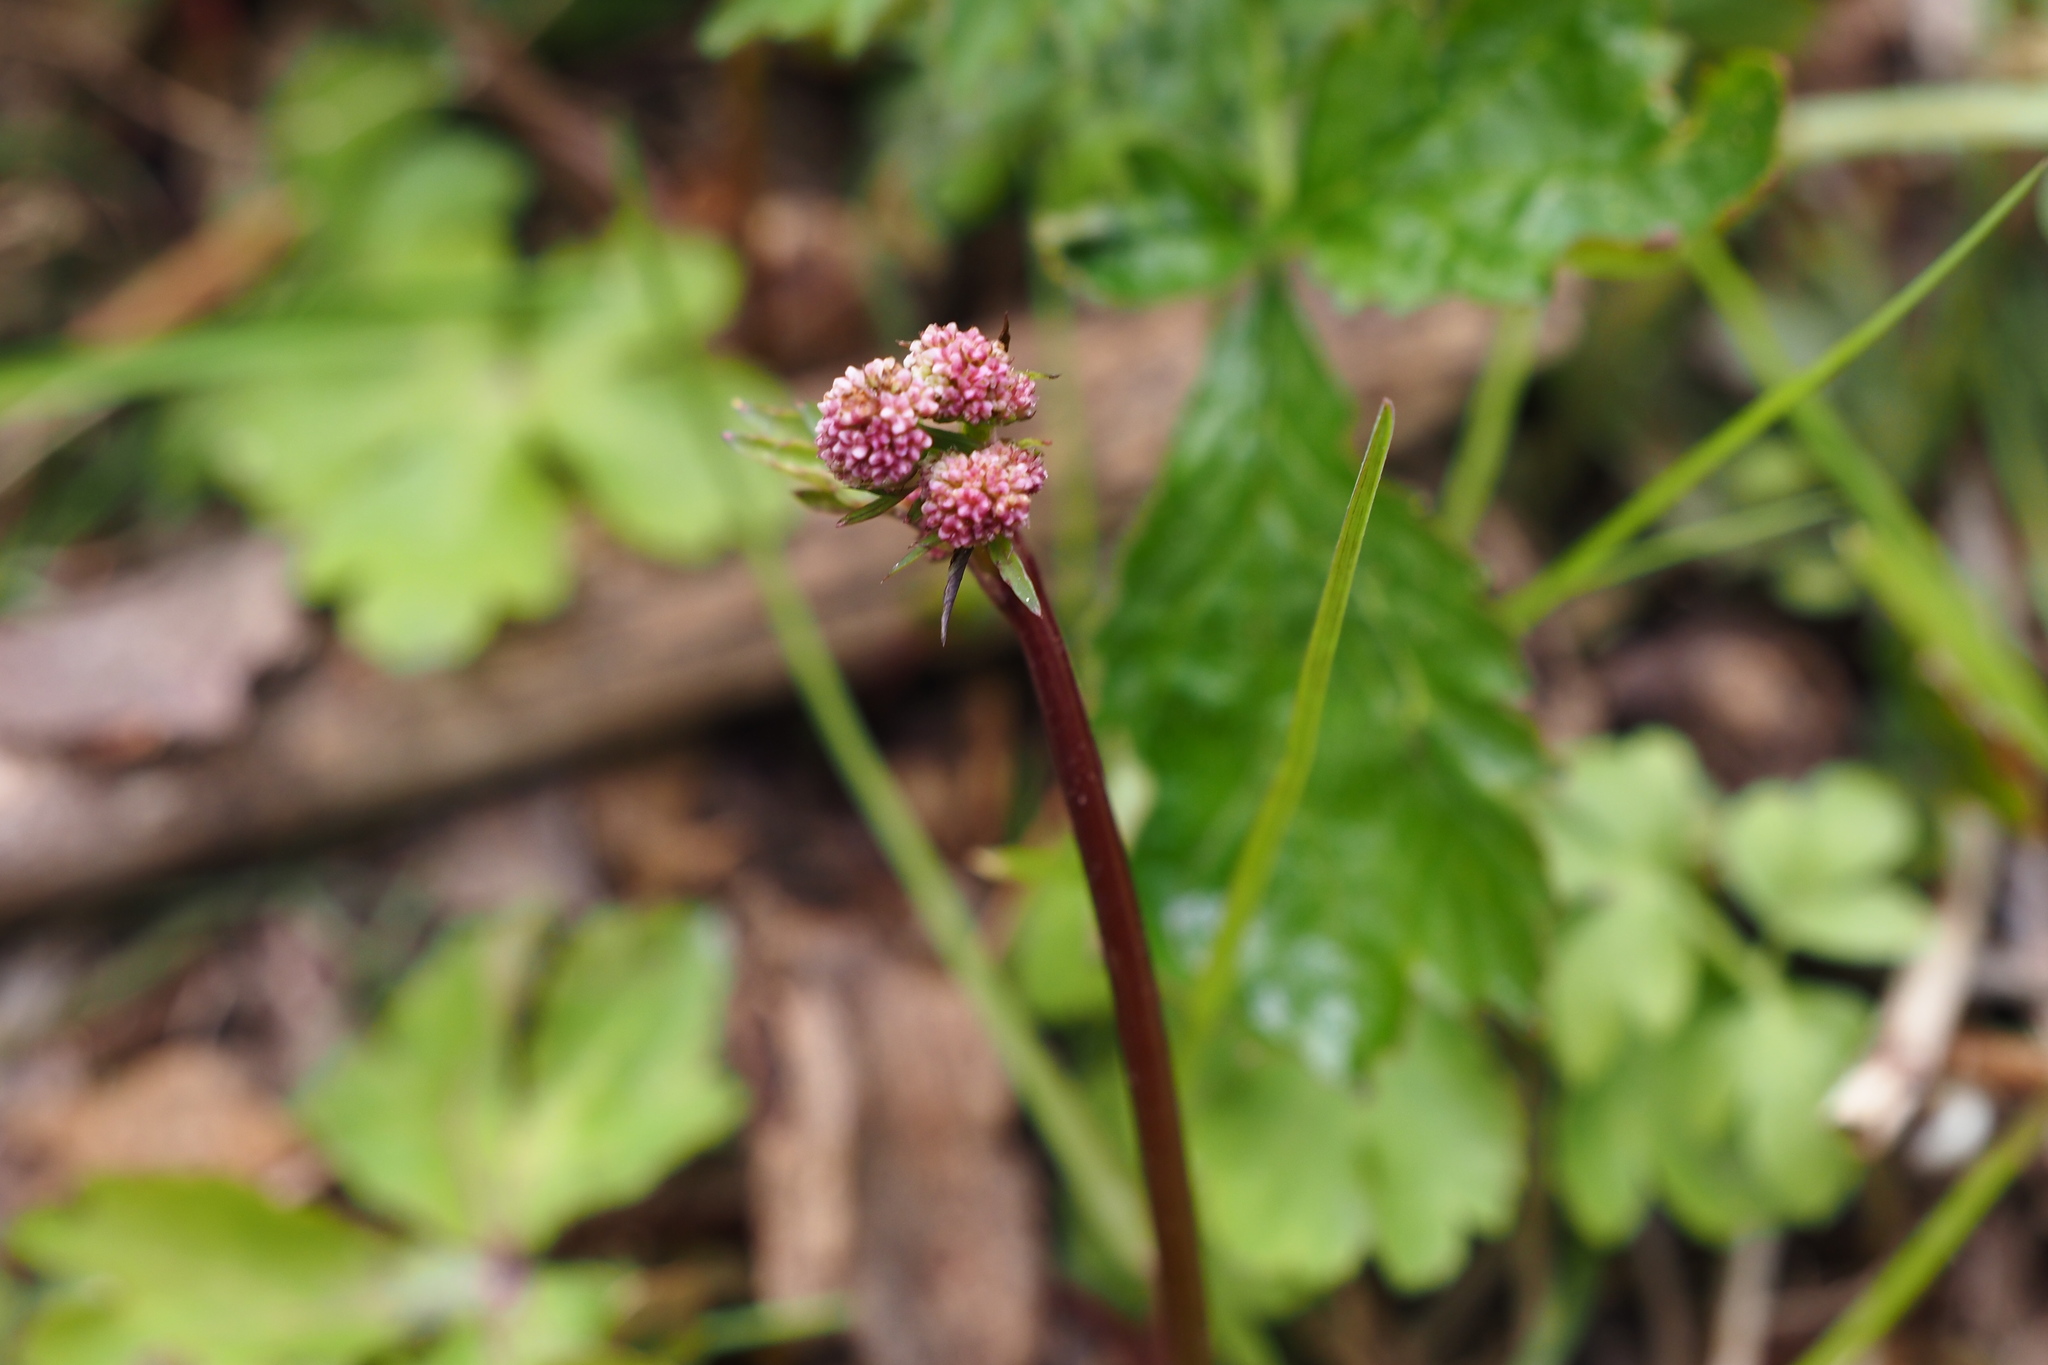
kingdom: Plantae
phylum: Tracheophyta
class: Magnoliopsida
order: Apiales
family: Apiaceae
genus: Sanicula
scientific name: Sanicula europaea
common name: Sanicle
